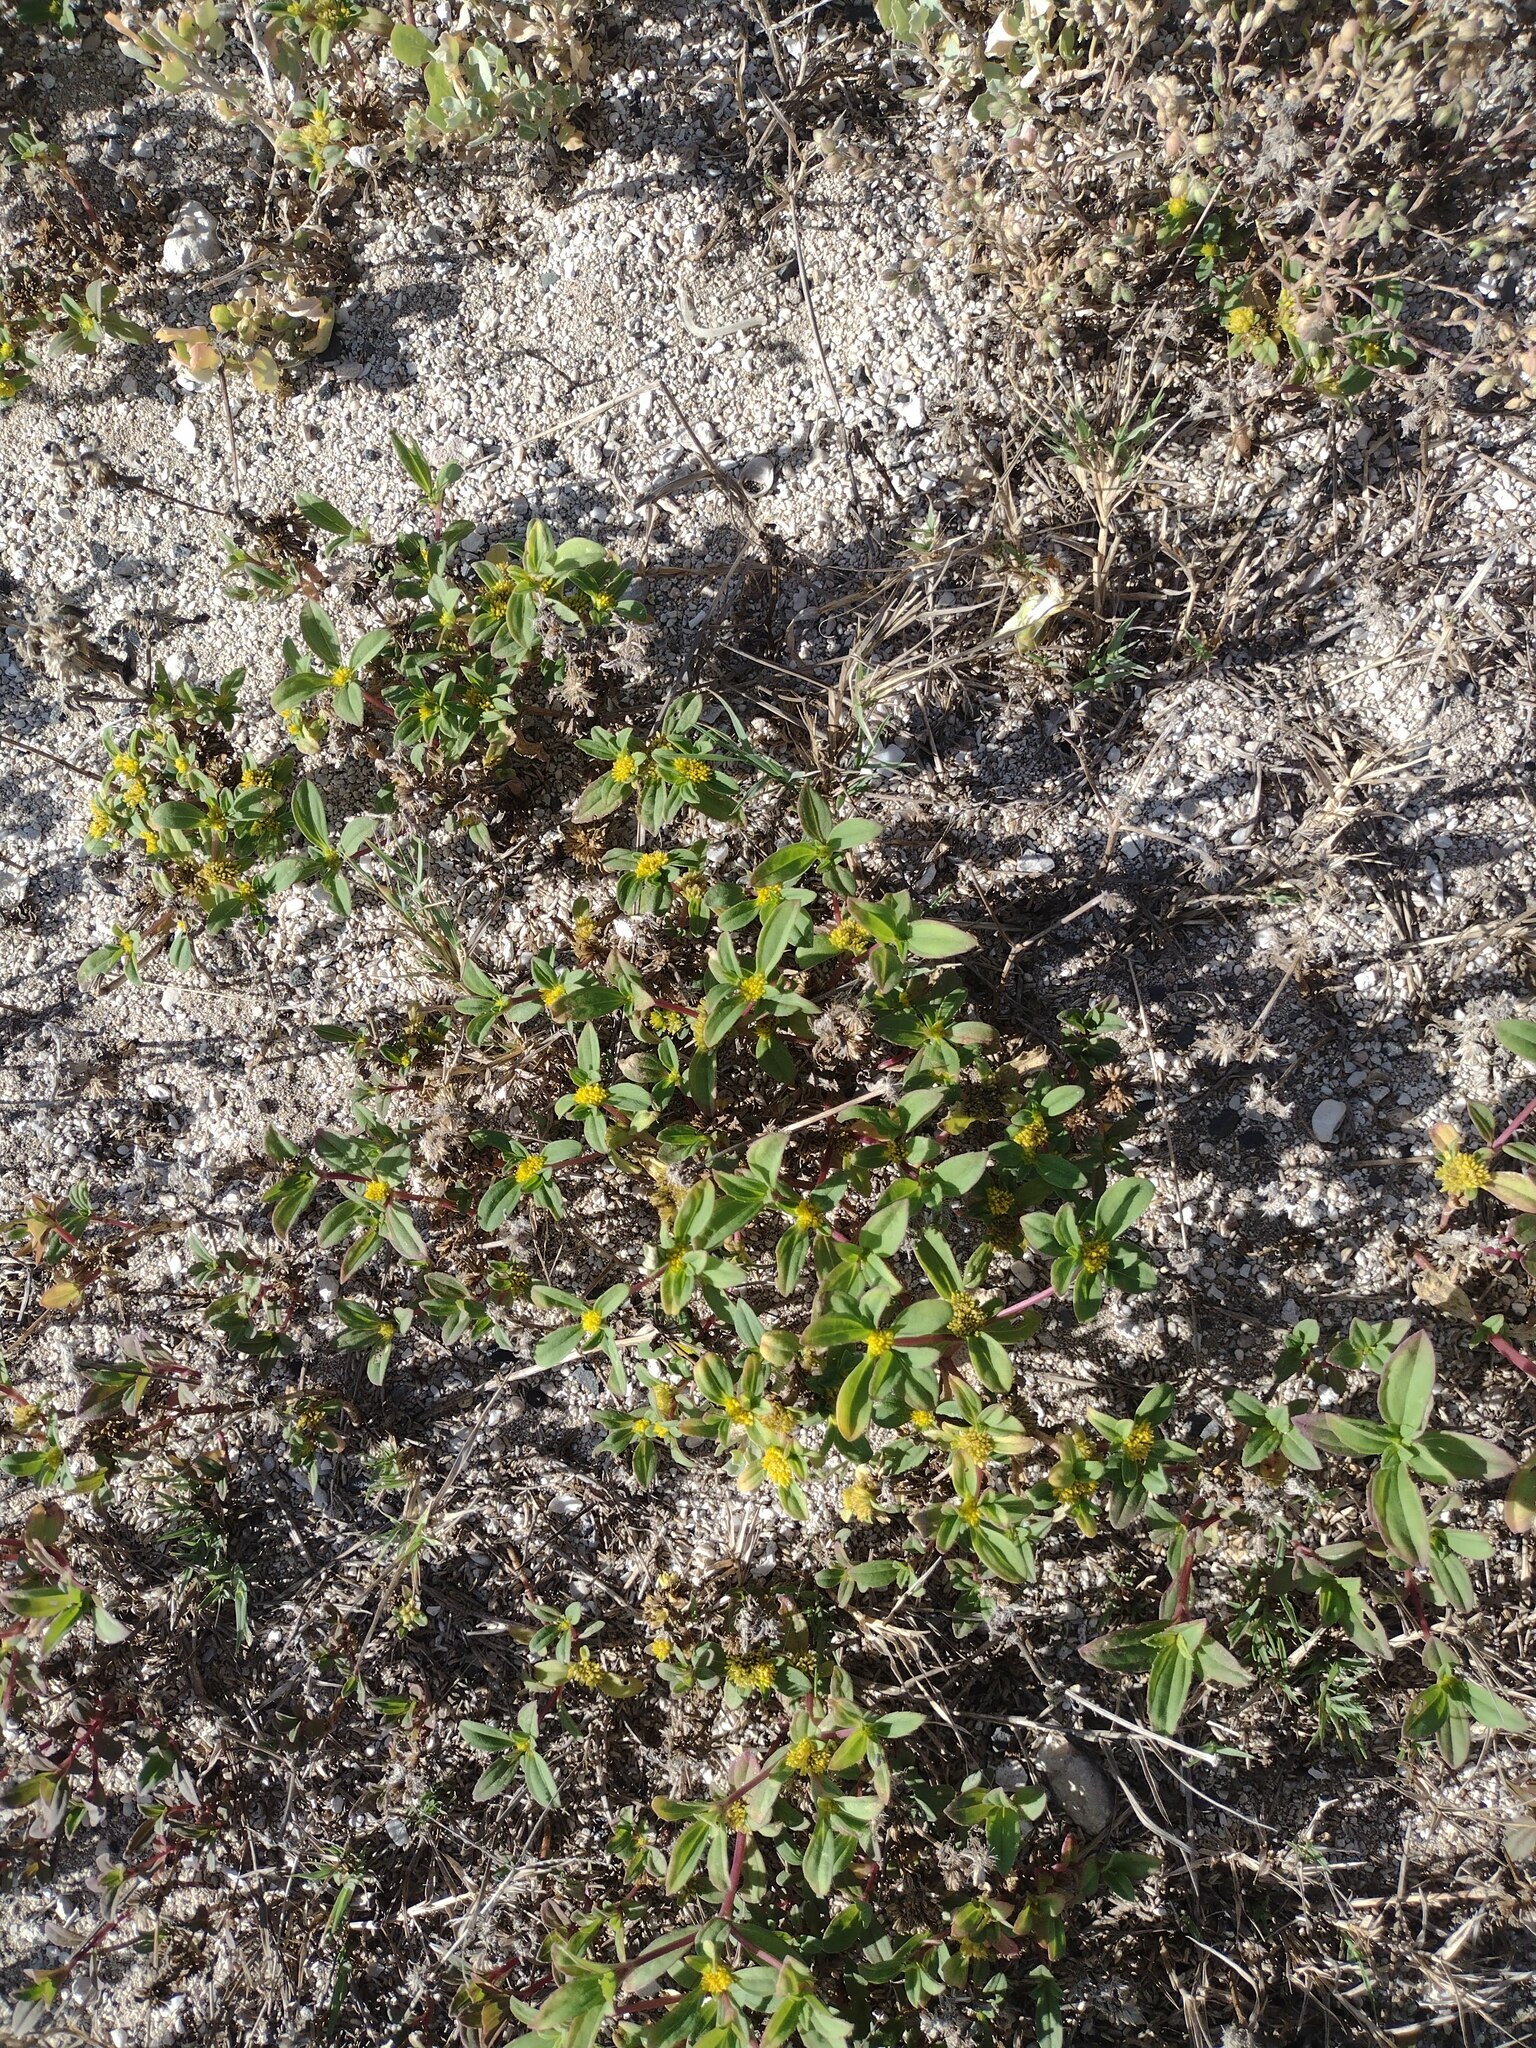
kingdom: Plantae
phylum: Tracheophyta
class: Magnoliopsida
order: Asterales
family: Asteraceae
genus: Flaveria
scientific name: Flaveria trinervia
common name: Clustered yellowtops
